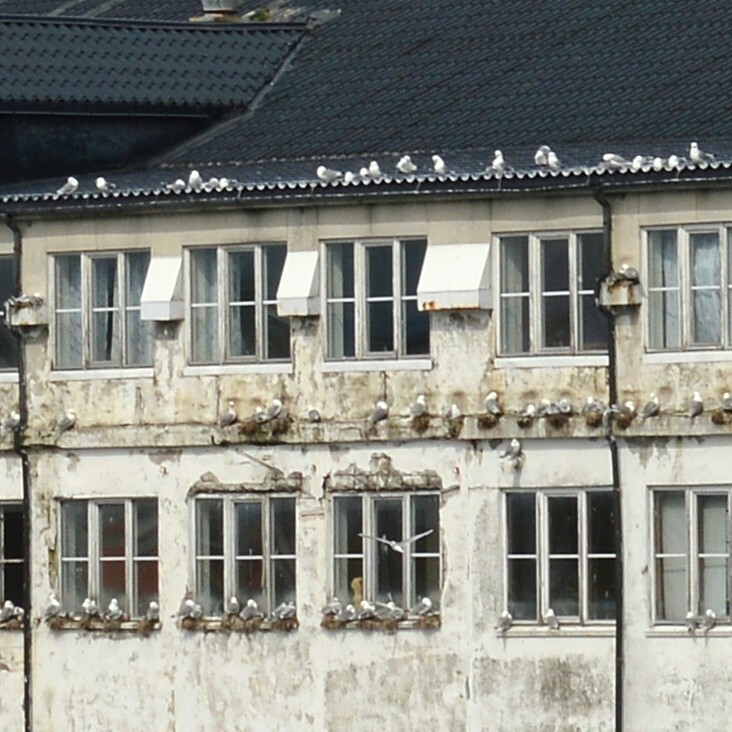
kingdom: Animalia
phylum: Chordata
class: Aves
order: Charadriiformes
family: Laridae
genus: Rissa
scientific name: Rissa tridactyla
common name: Black-legged kittiwake
